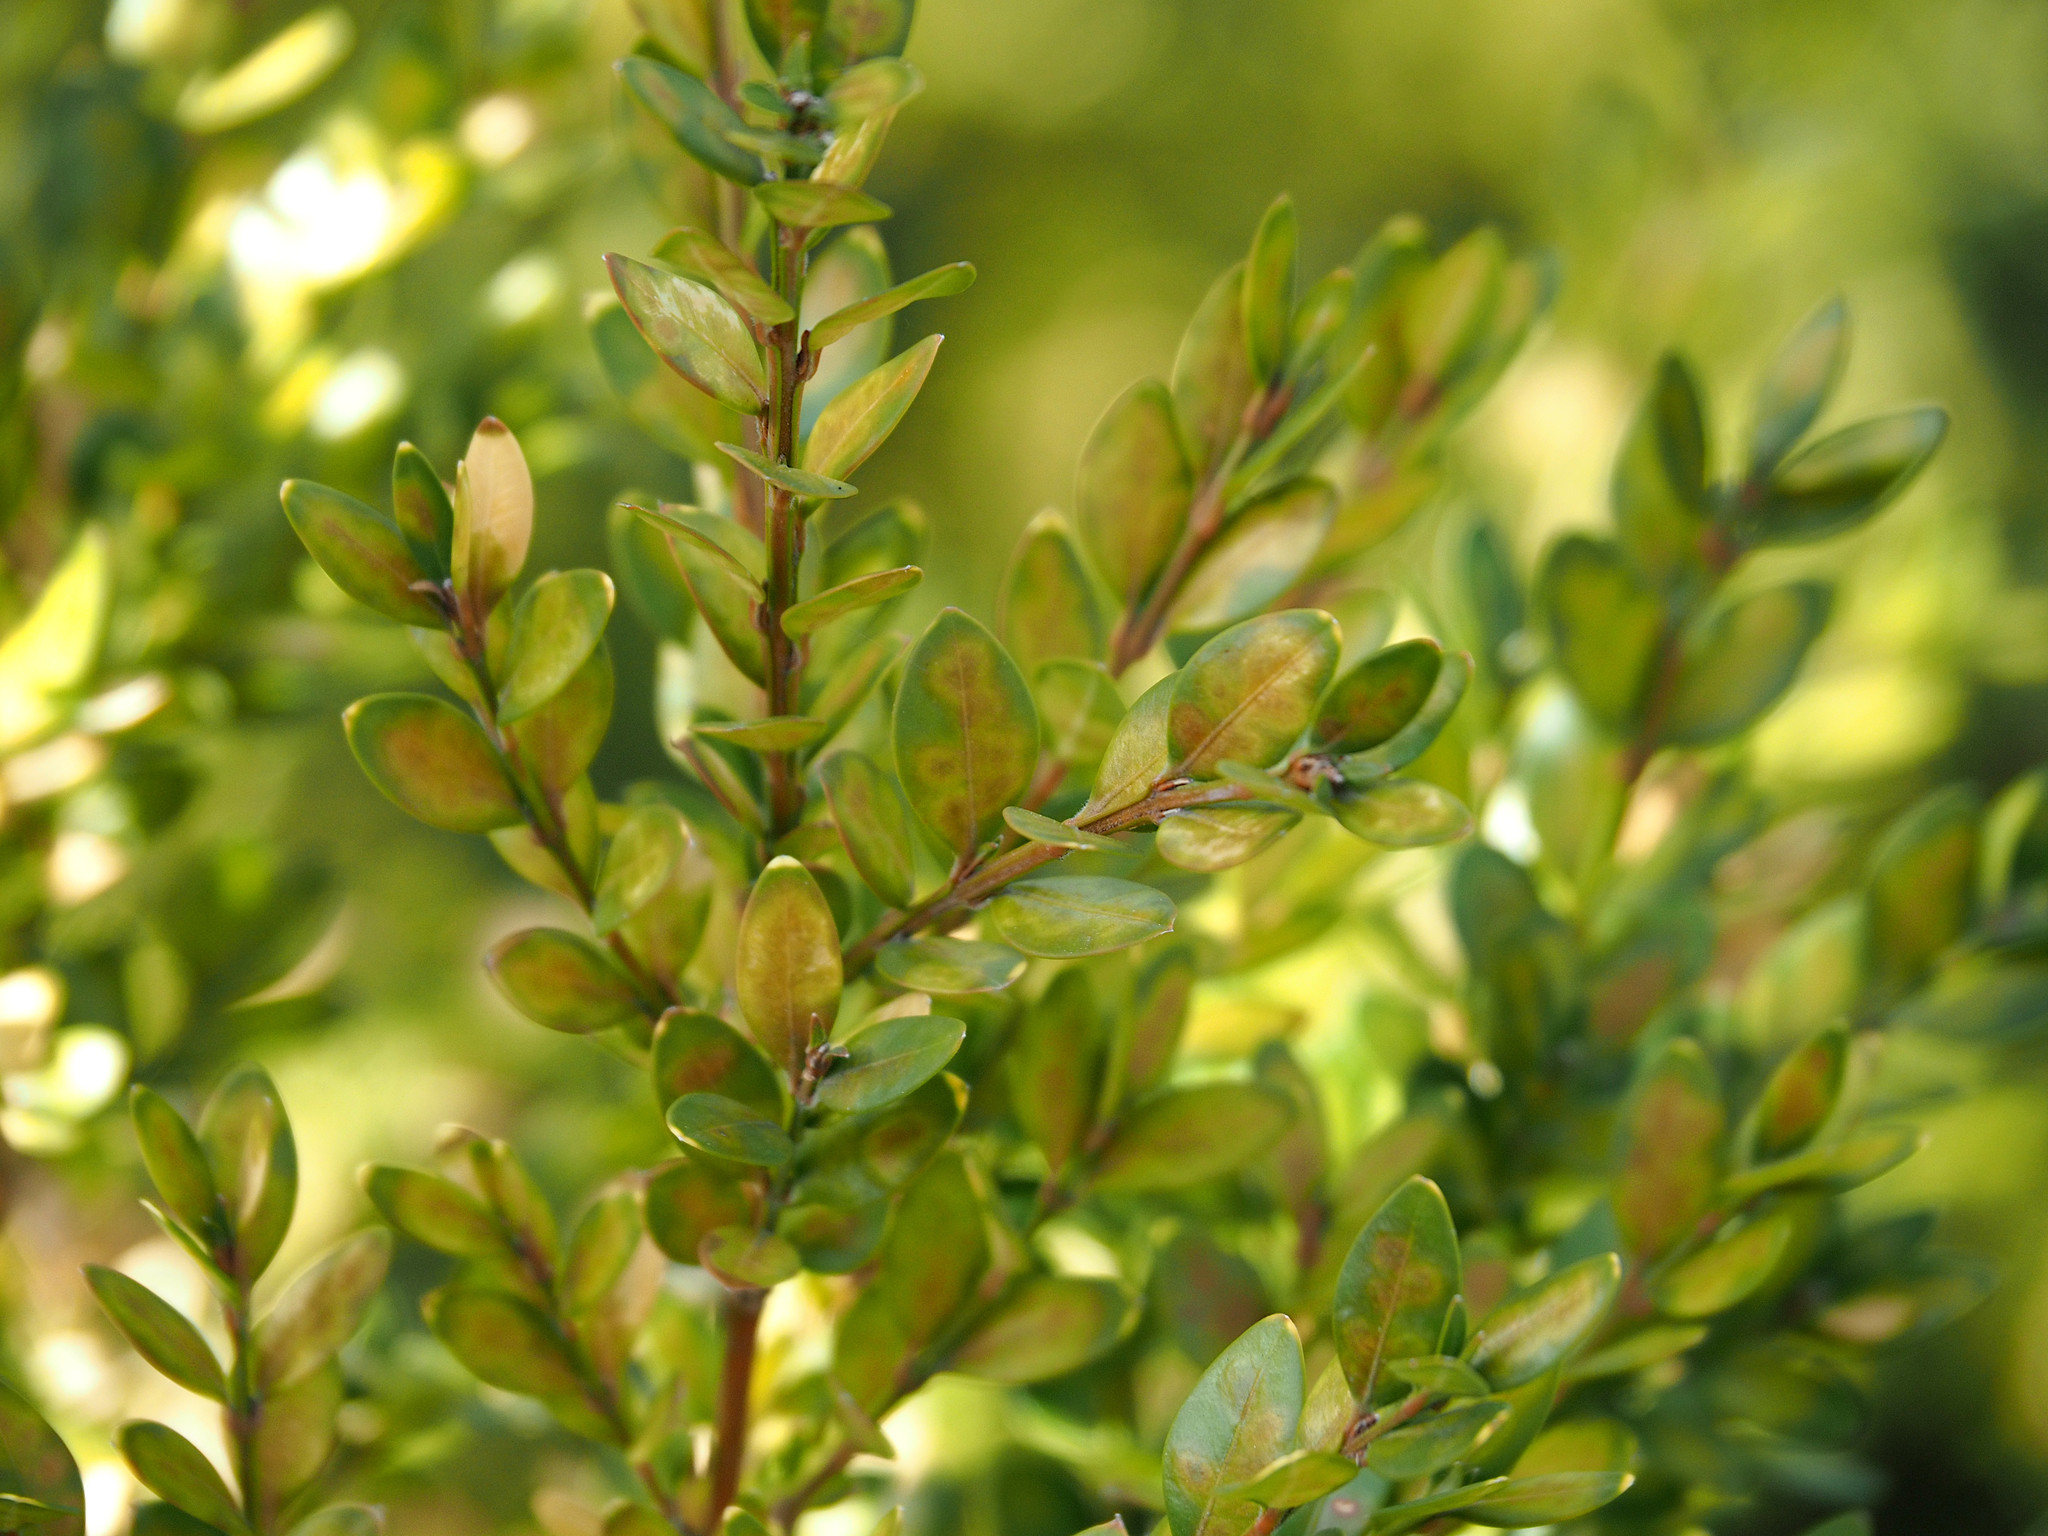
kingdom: Animalia
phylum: Arthropoda
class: Insecta
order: Diptera
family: Cecidomyiidae
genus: Monarthropalpus
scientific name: Monarthropalpus flavus
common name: Boxwood leafminer
